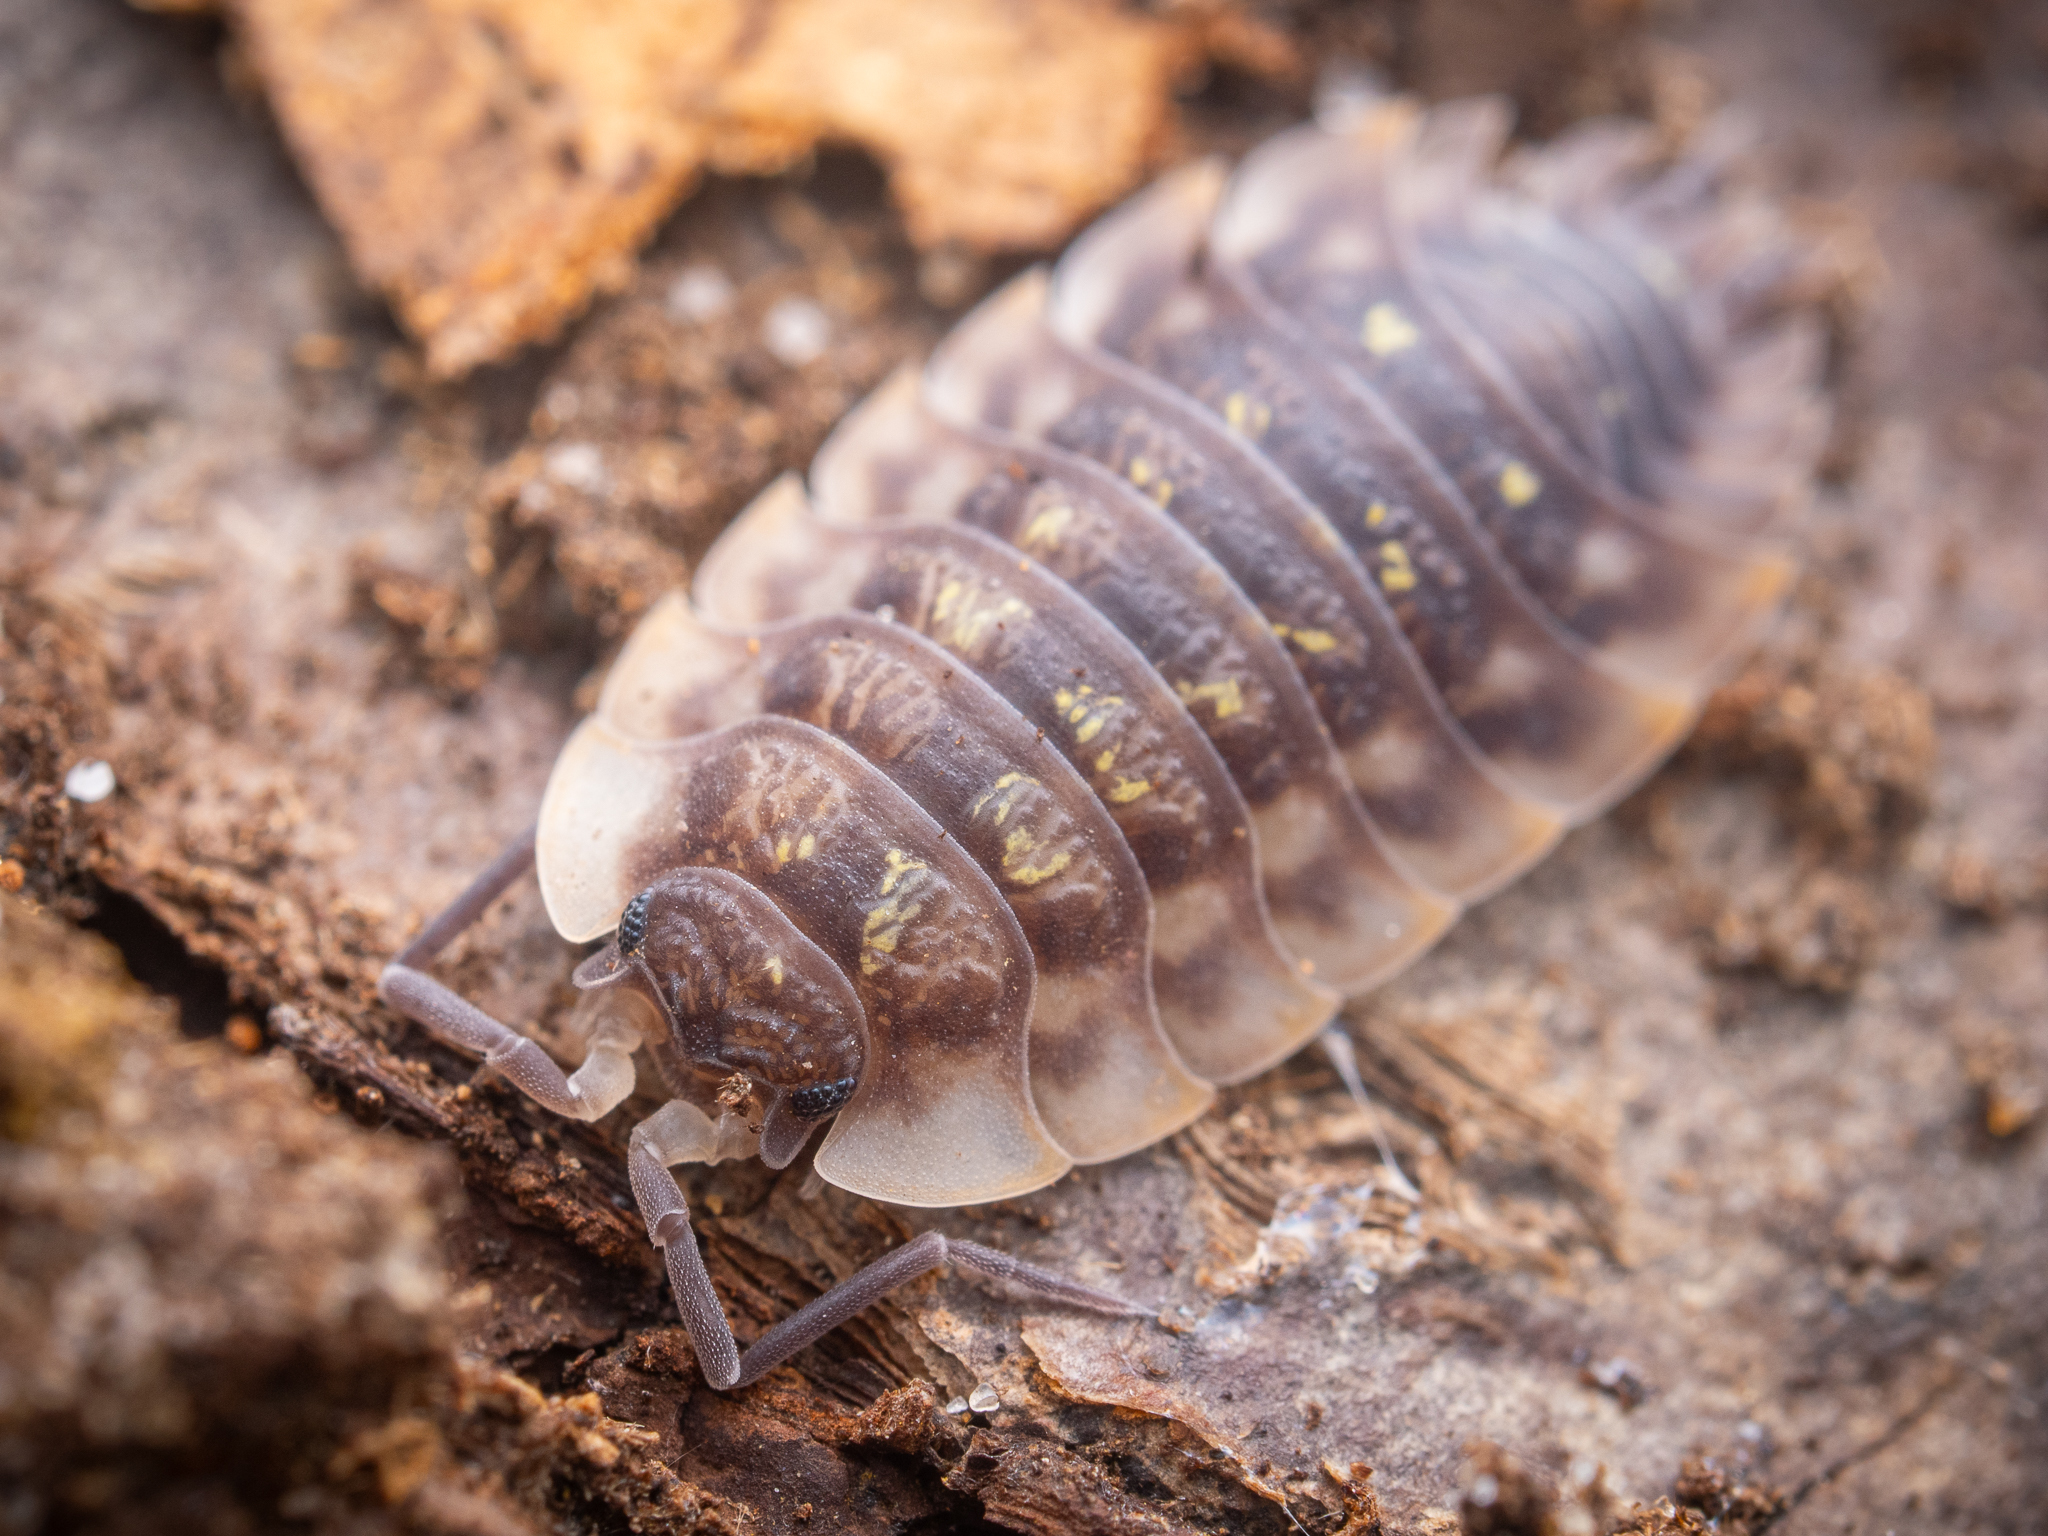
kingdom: Animalia
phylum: Arthropoda
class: Malacostraca
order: Isopoda
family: Oniscidae
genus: Oniscus
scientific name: Oniscus asellus
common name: Common shiny woodlouse
